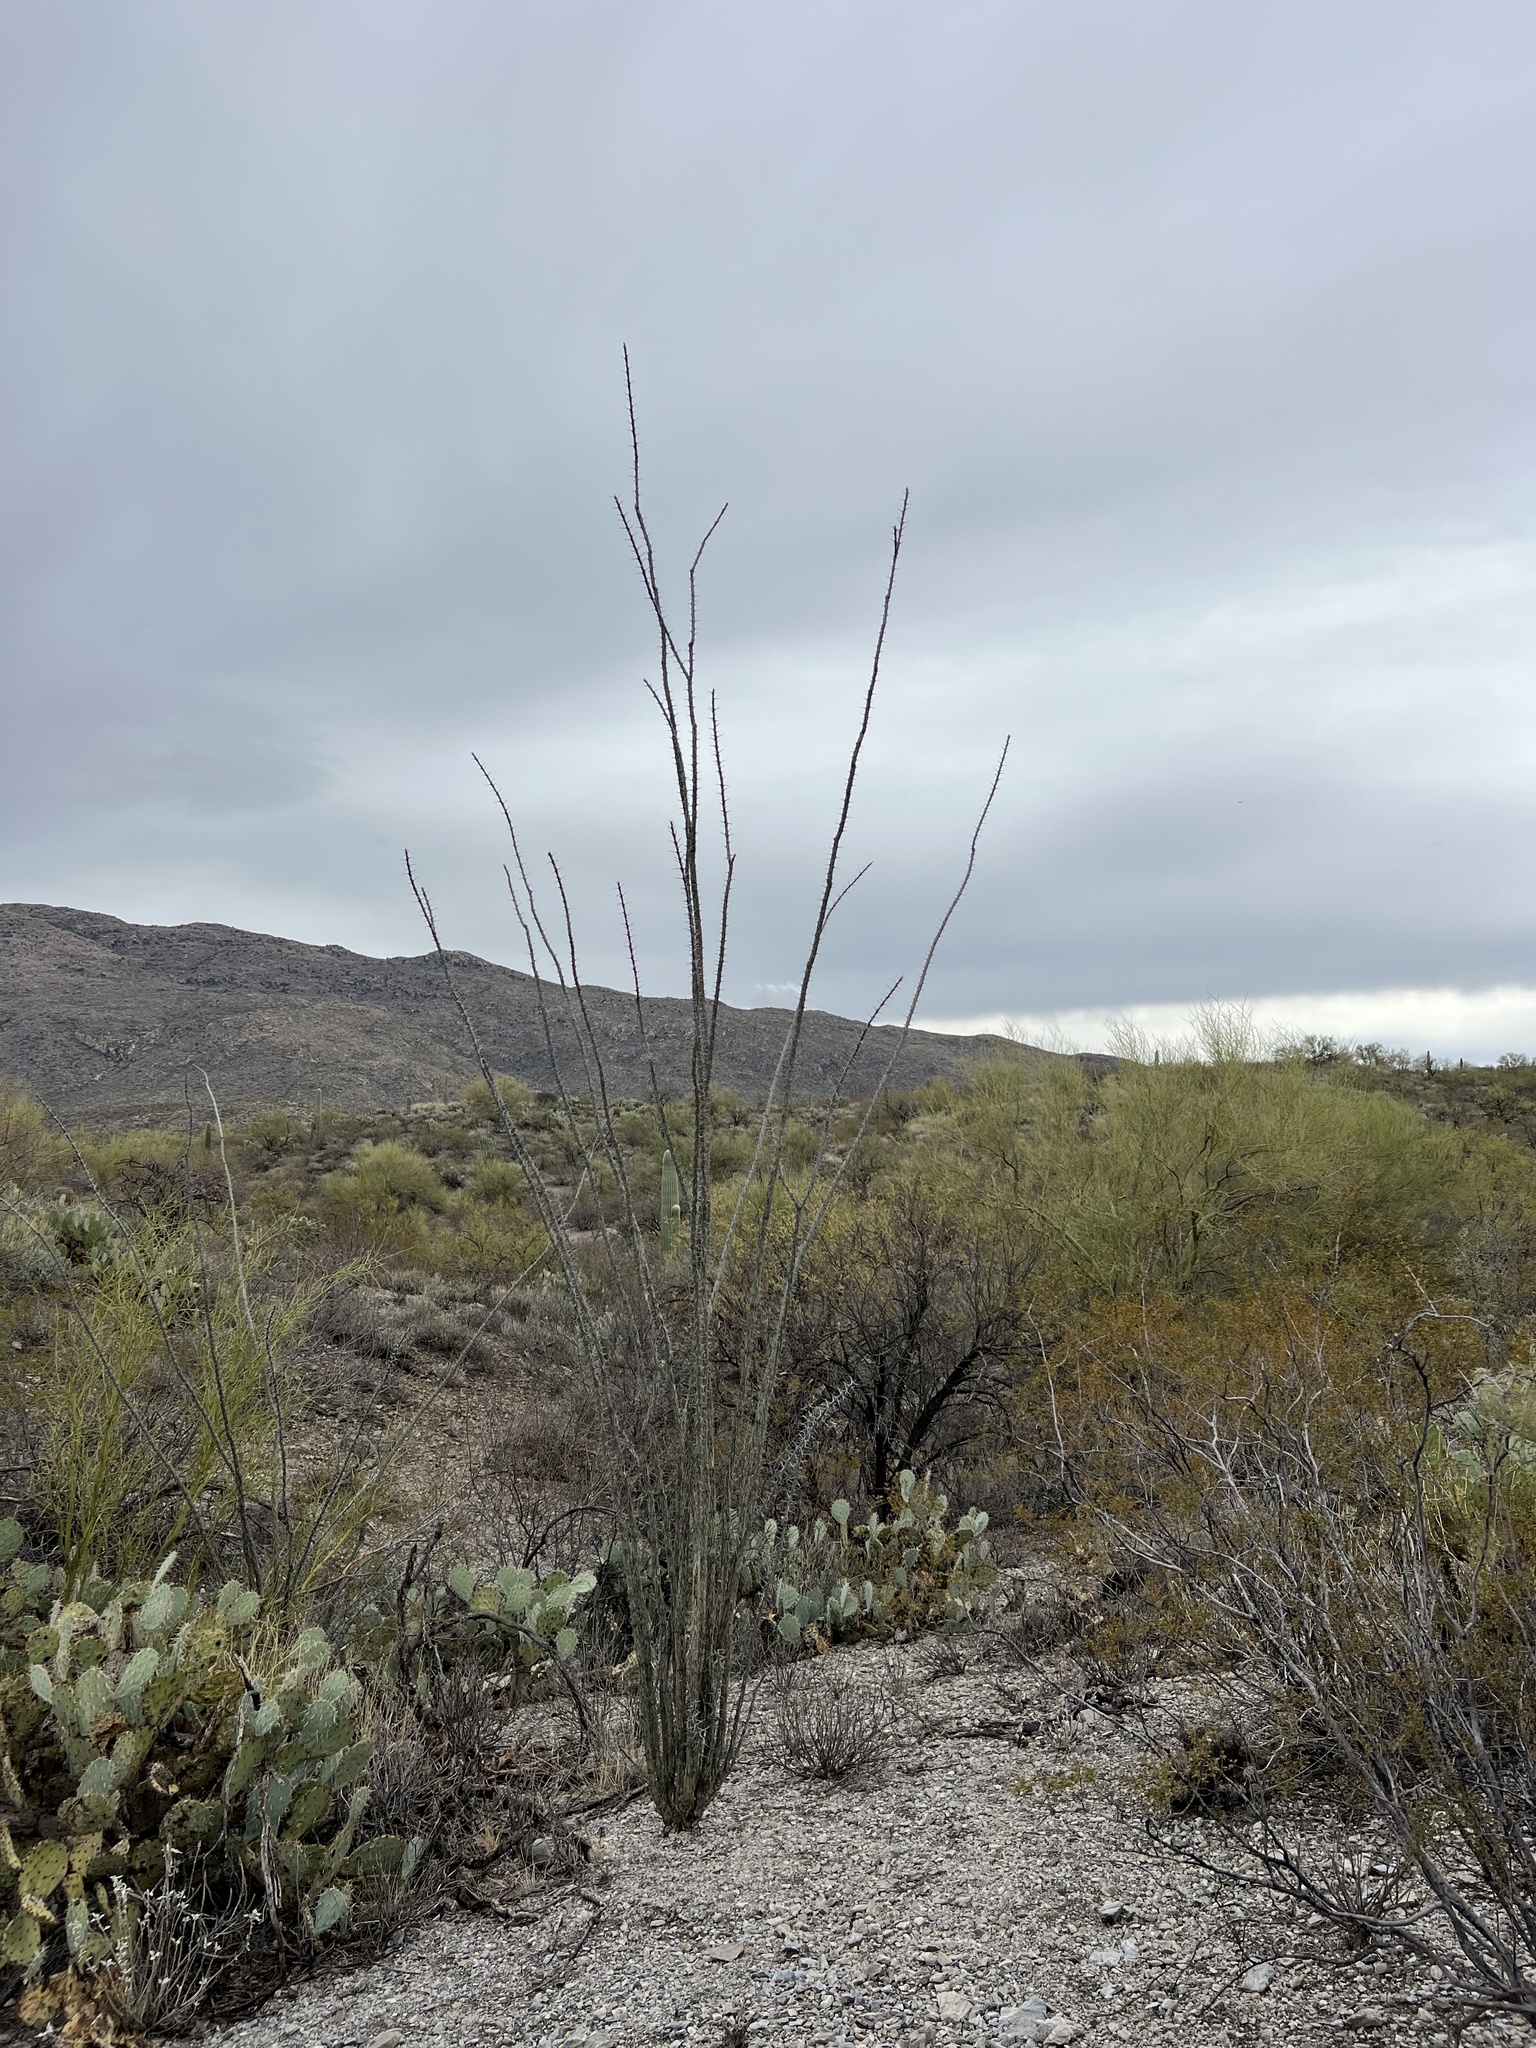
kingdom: Plantae
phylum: Tracheophyta
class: Magnoliopsida
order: Ericales
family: Fouquieriaceae
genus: Fouquieria
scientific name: Fouquieria splendens
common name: Vine-cactus
